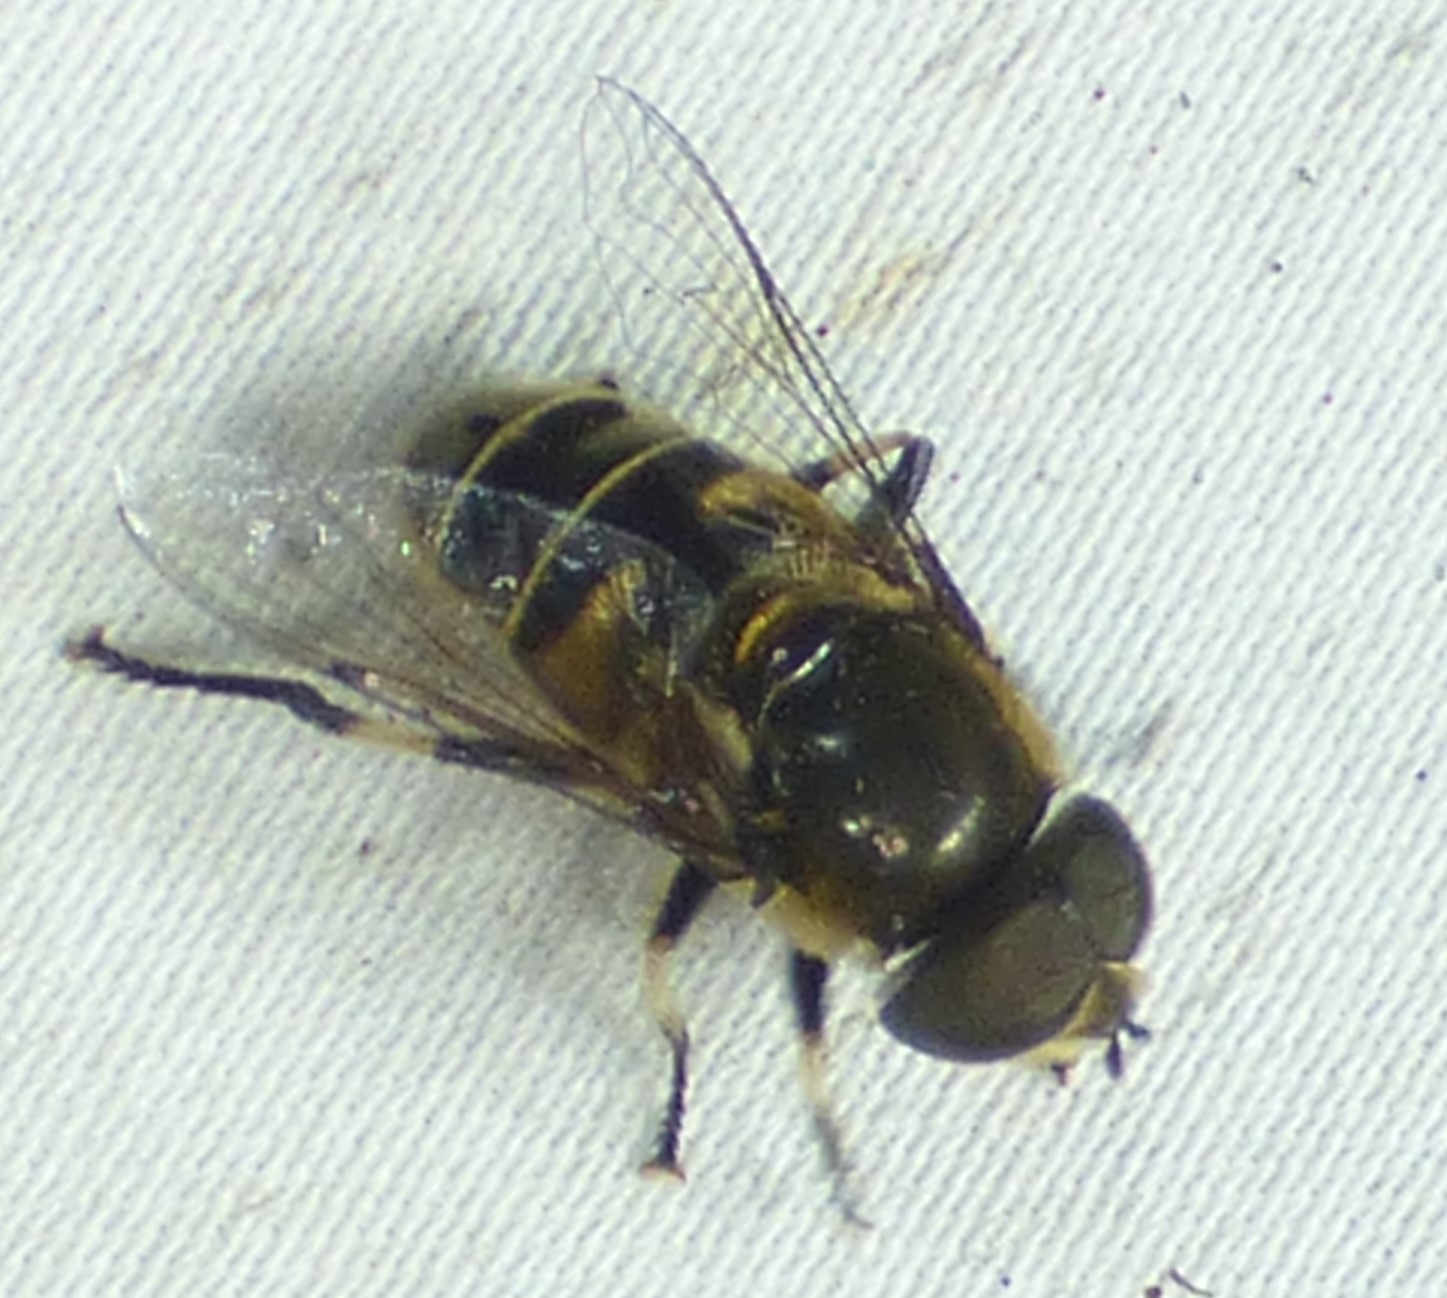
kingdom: Animalia
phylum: Arthropoda
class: Insecta
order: Diptera
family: Syrphidae
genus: Eristalis
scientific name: Eristalis dimidiata
